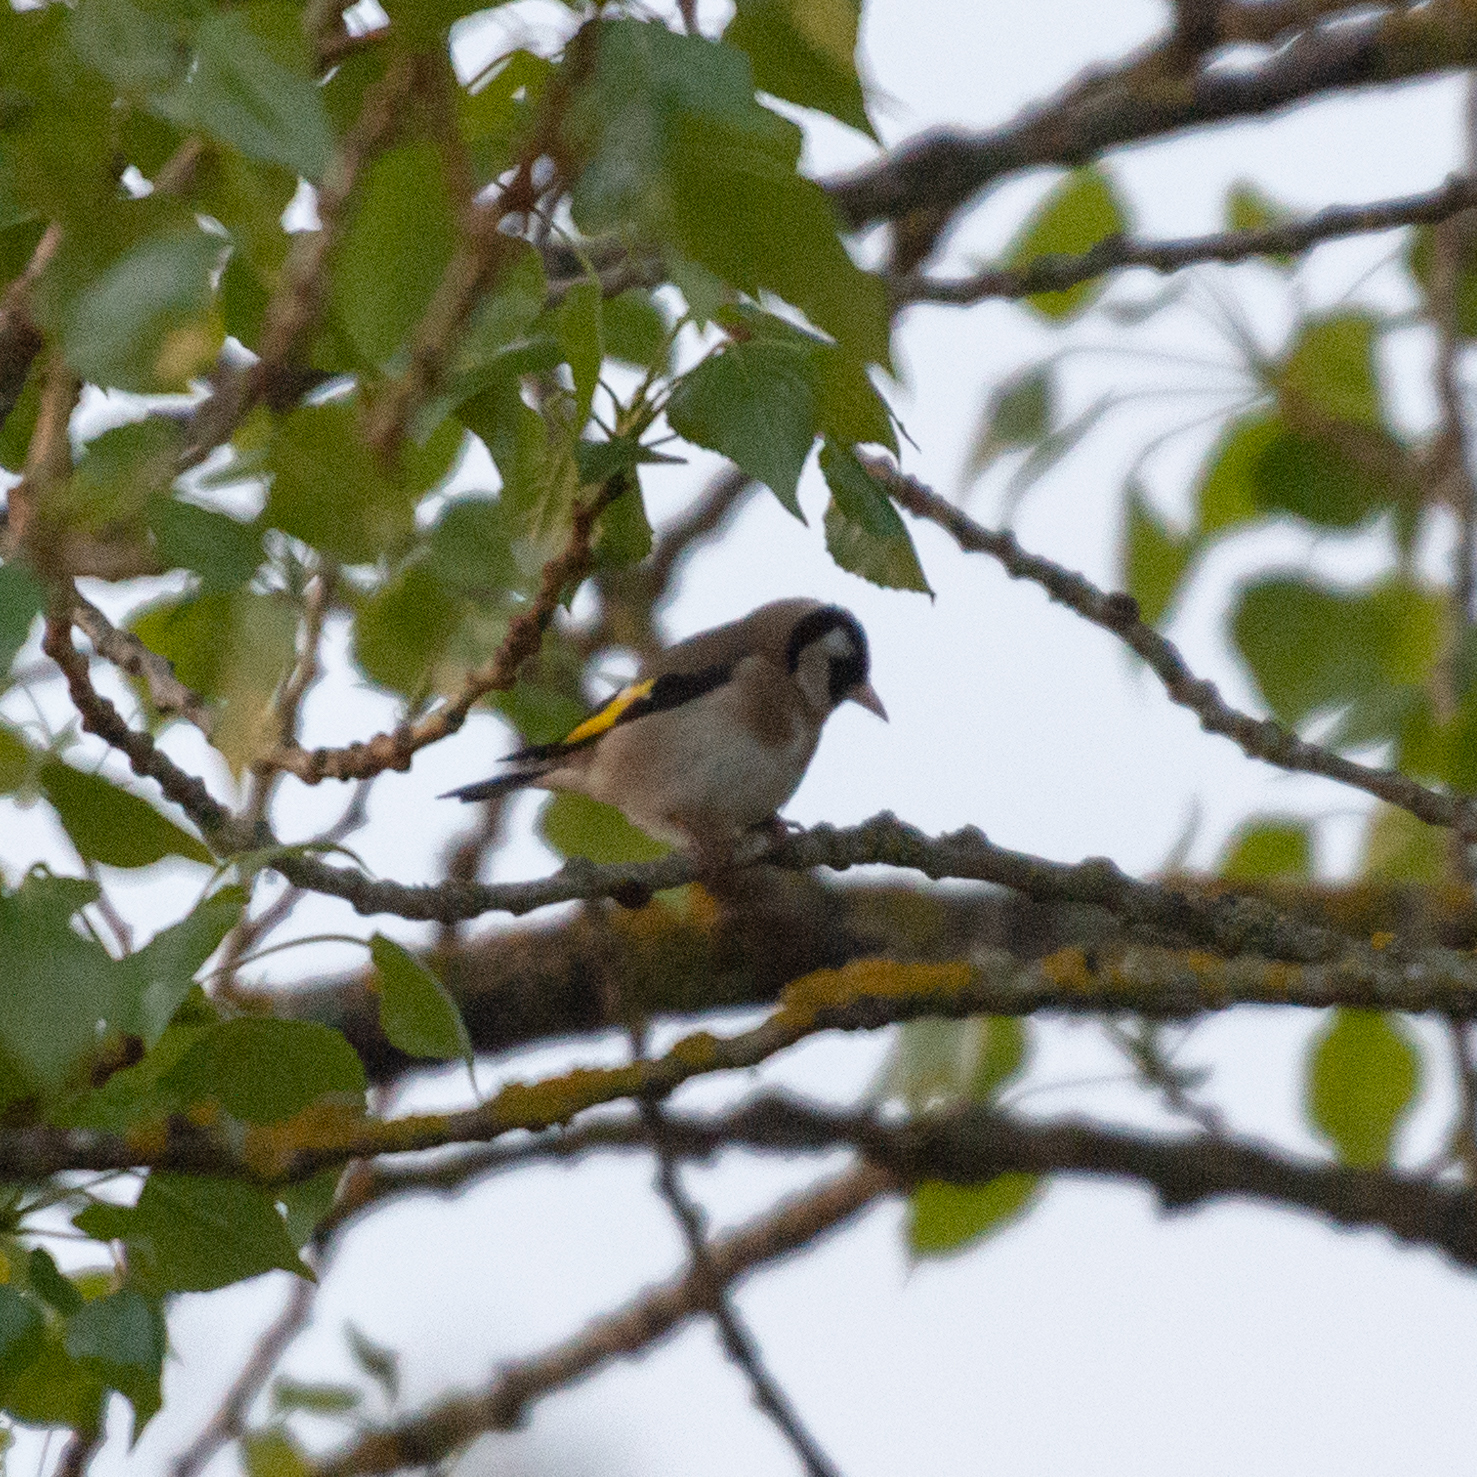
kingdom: Animalia
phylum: Chordata
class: Aves
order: Passeriformes
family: Fringillidae
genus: Carduelis
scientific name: Carduelis carduelis
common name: European goldfinch
